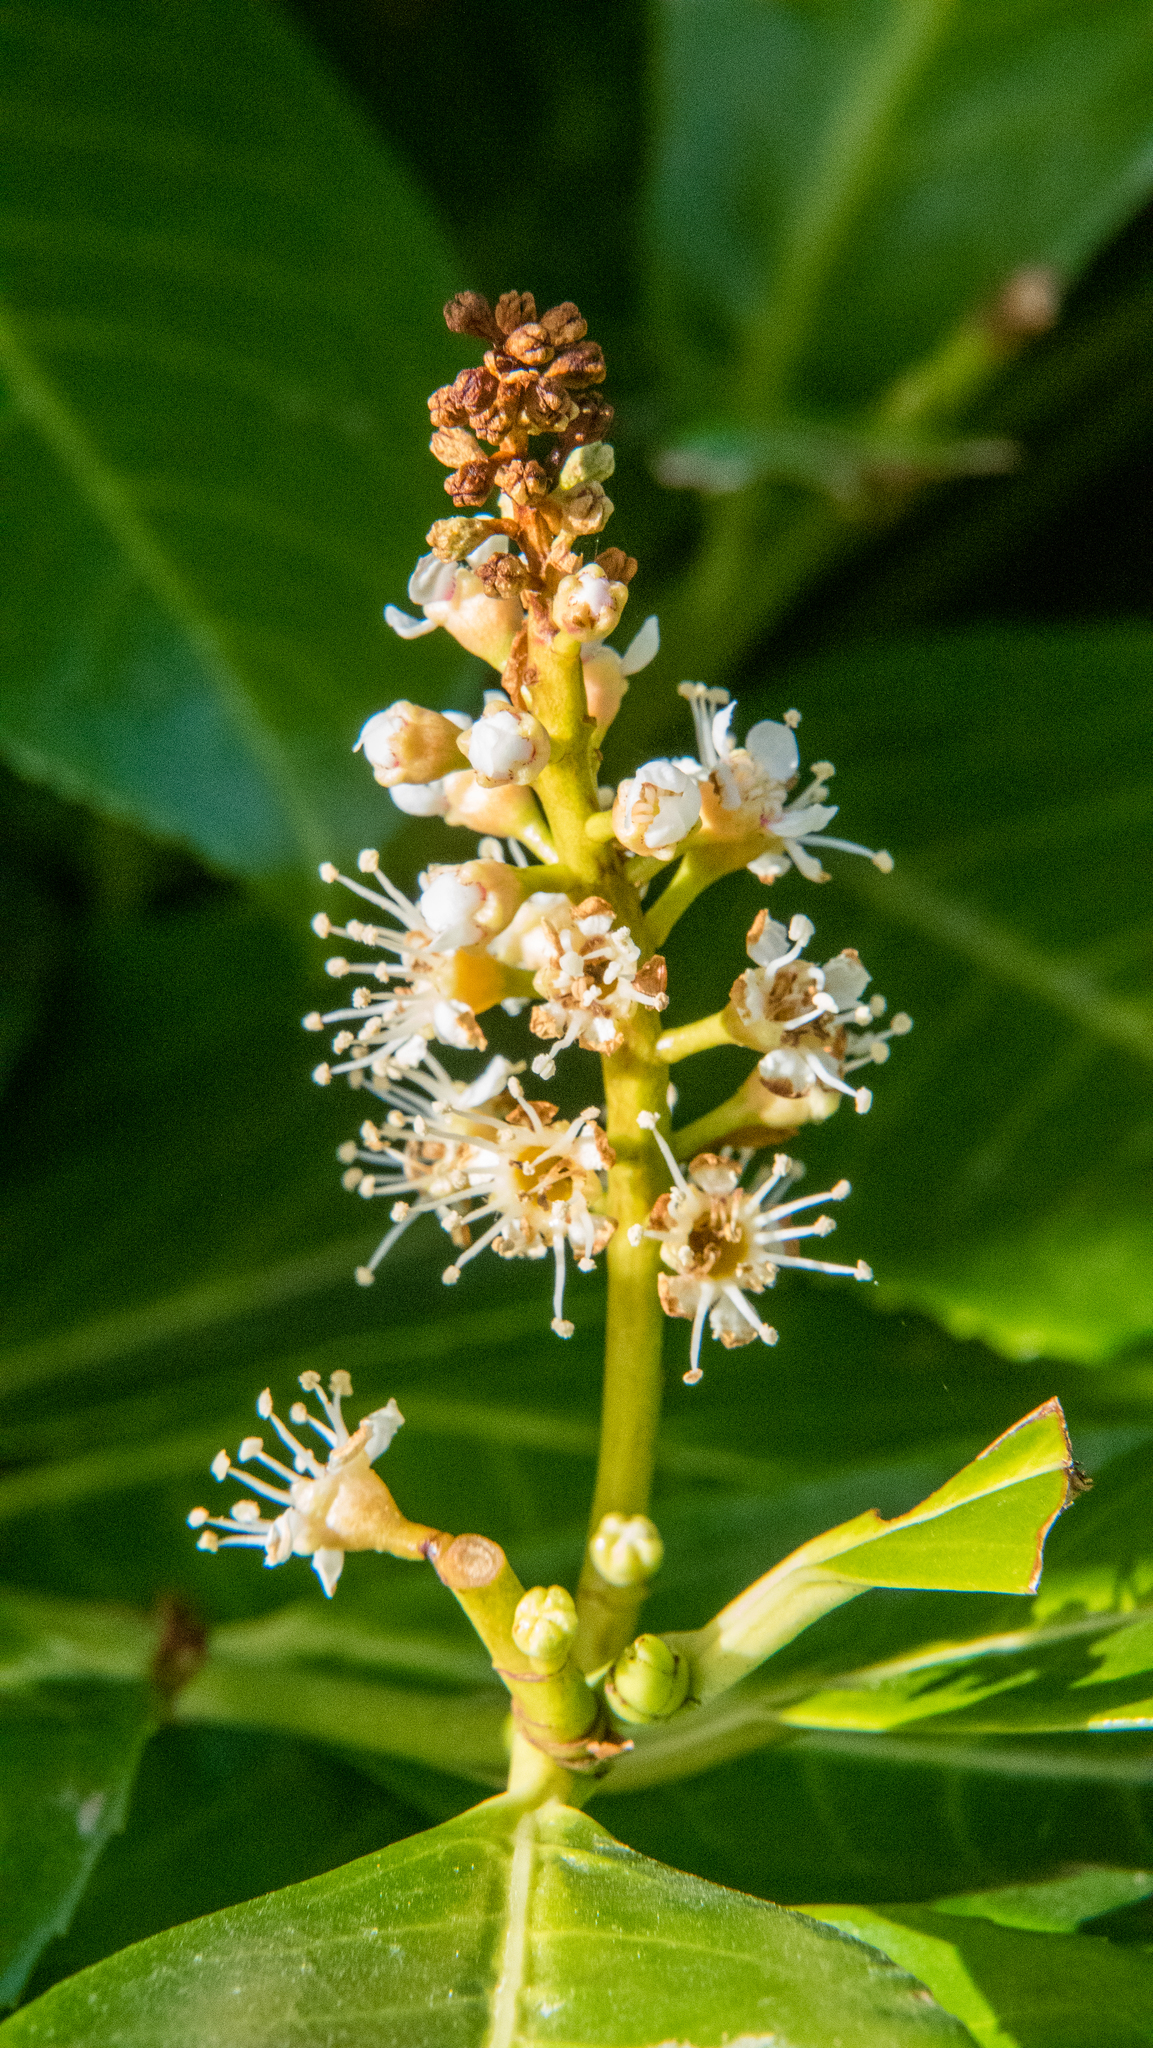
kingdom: Plantae
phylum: Tracheophyta
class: Magnoliopsida
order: Sapindales
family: Sapindaceae
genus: Aesculus
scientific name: Aesculus hippocastanum
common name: Horse-chestnut
